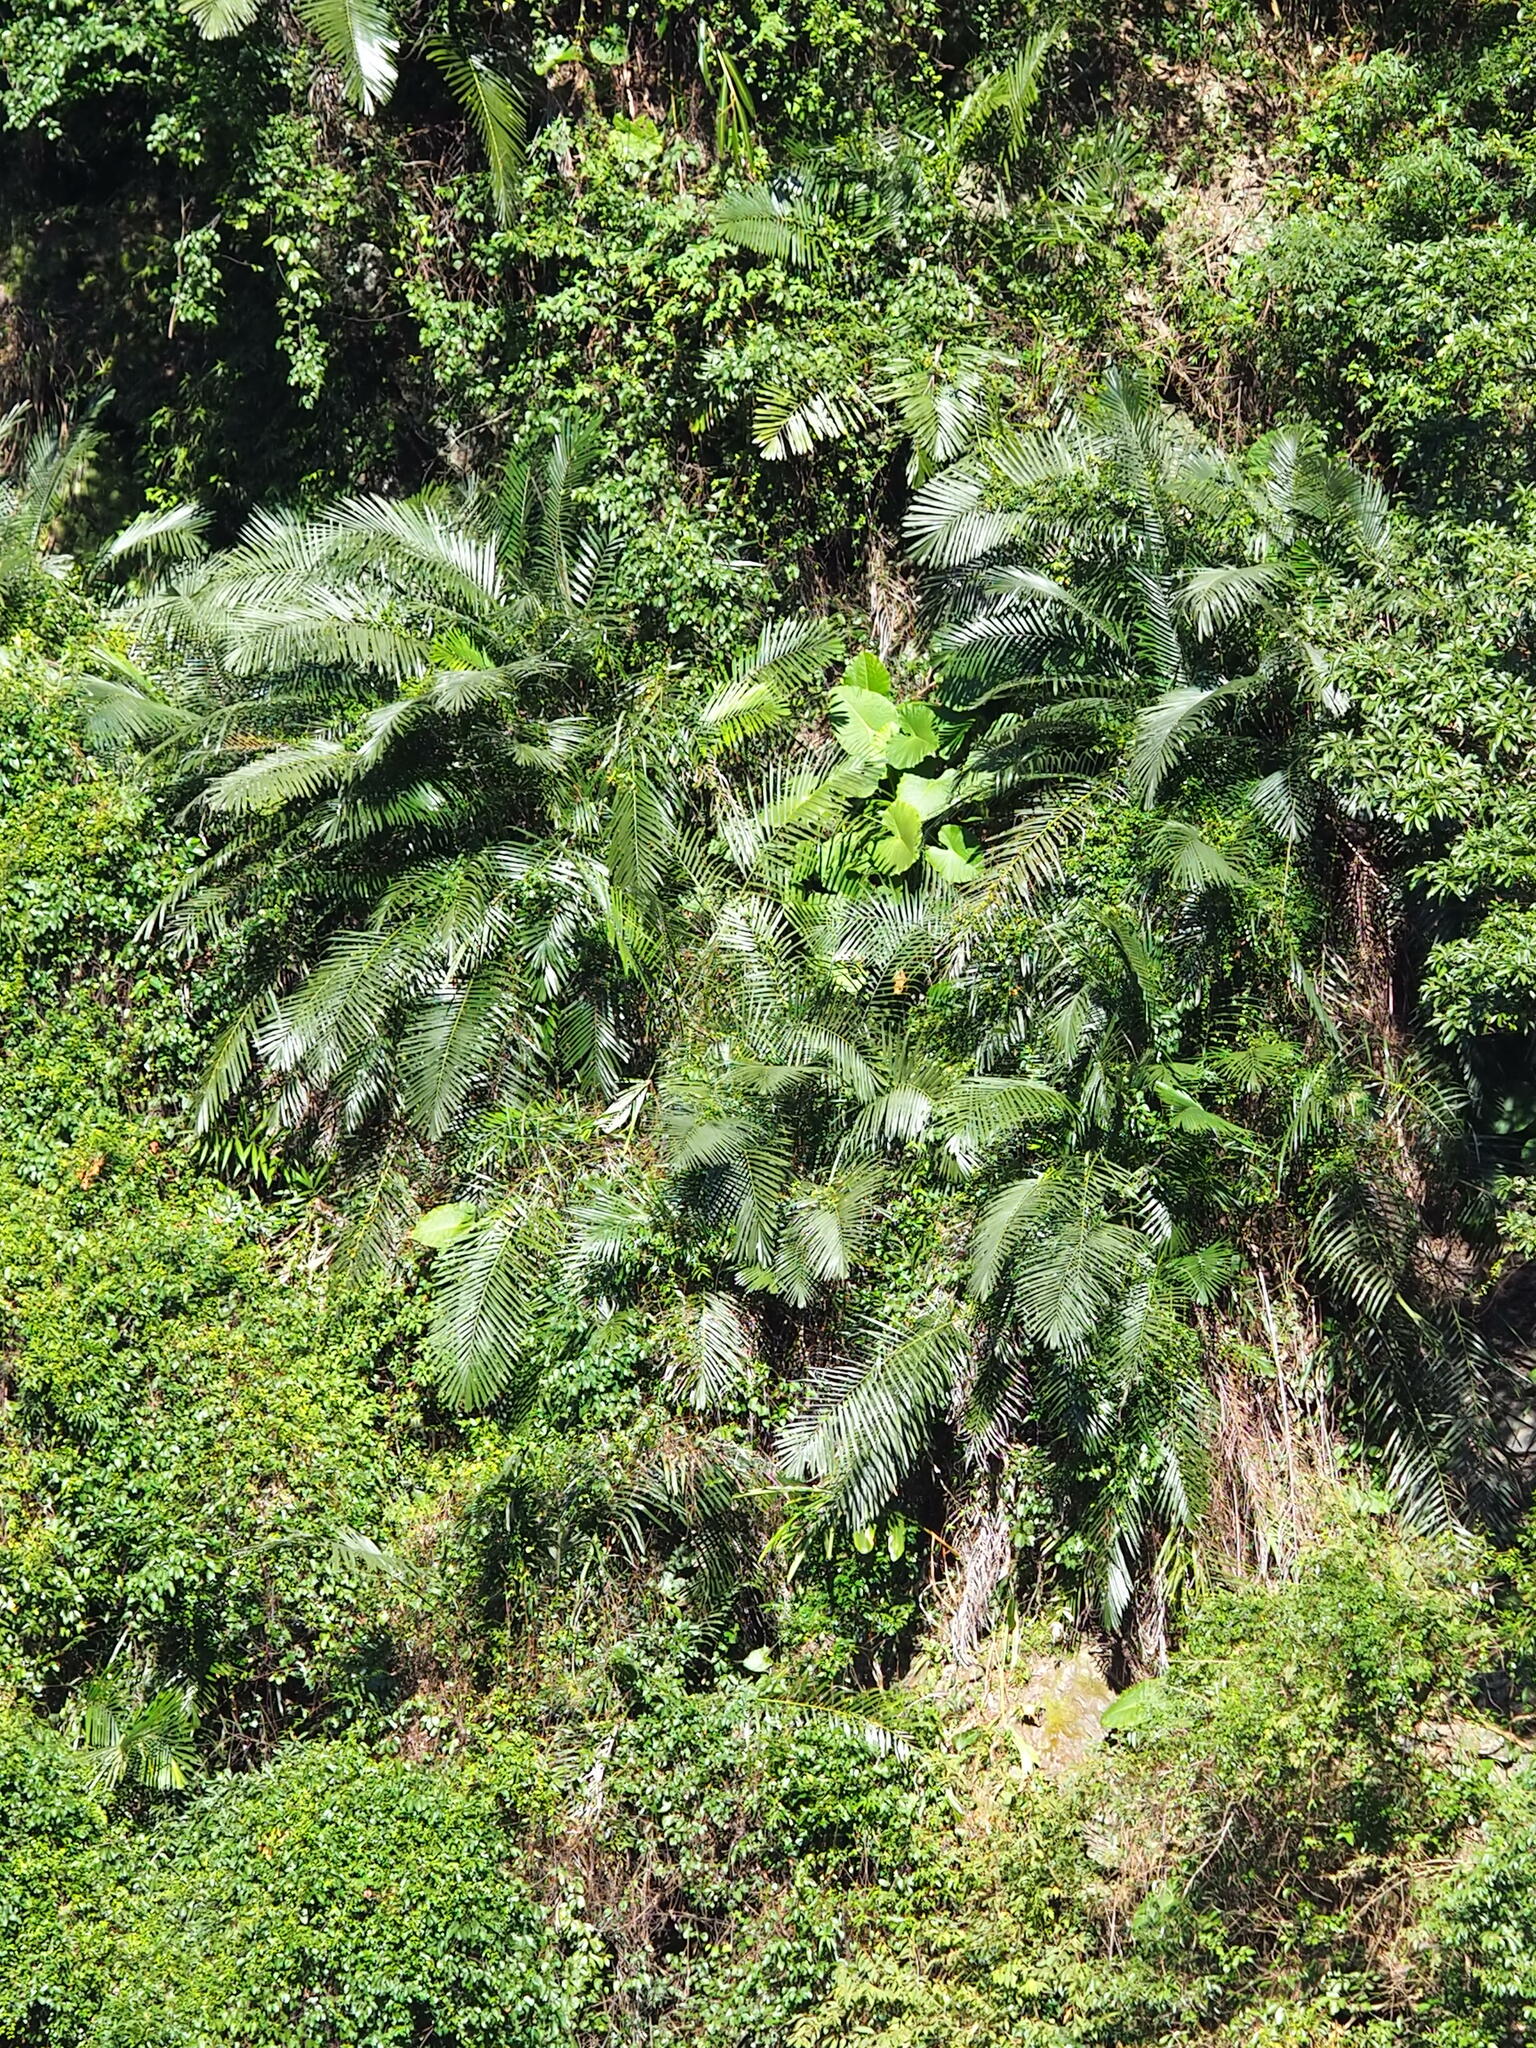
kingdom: Plantae
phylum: Tracheophyta
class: Liliopsida
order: Arecales
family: Arecaceae
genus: Arenga
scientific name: Arenga engleri
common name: Formosan sugar palm
